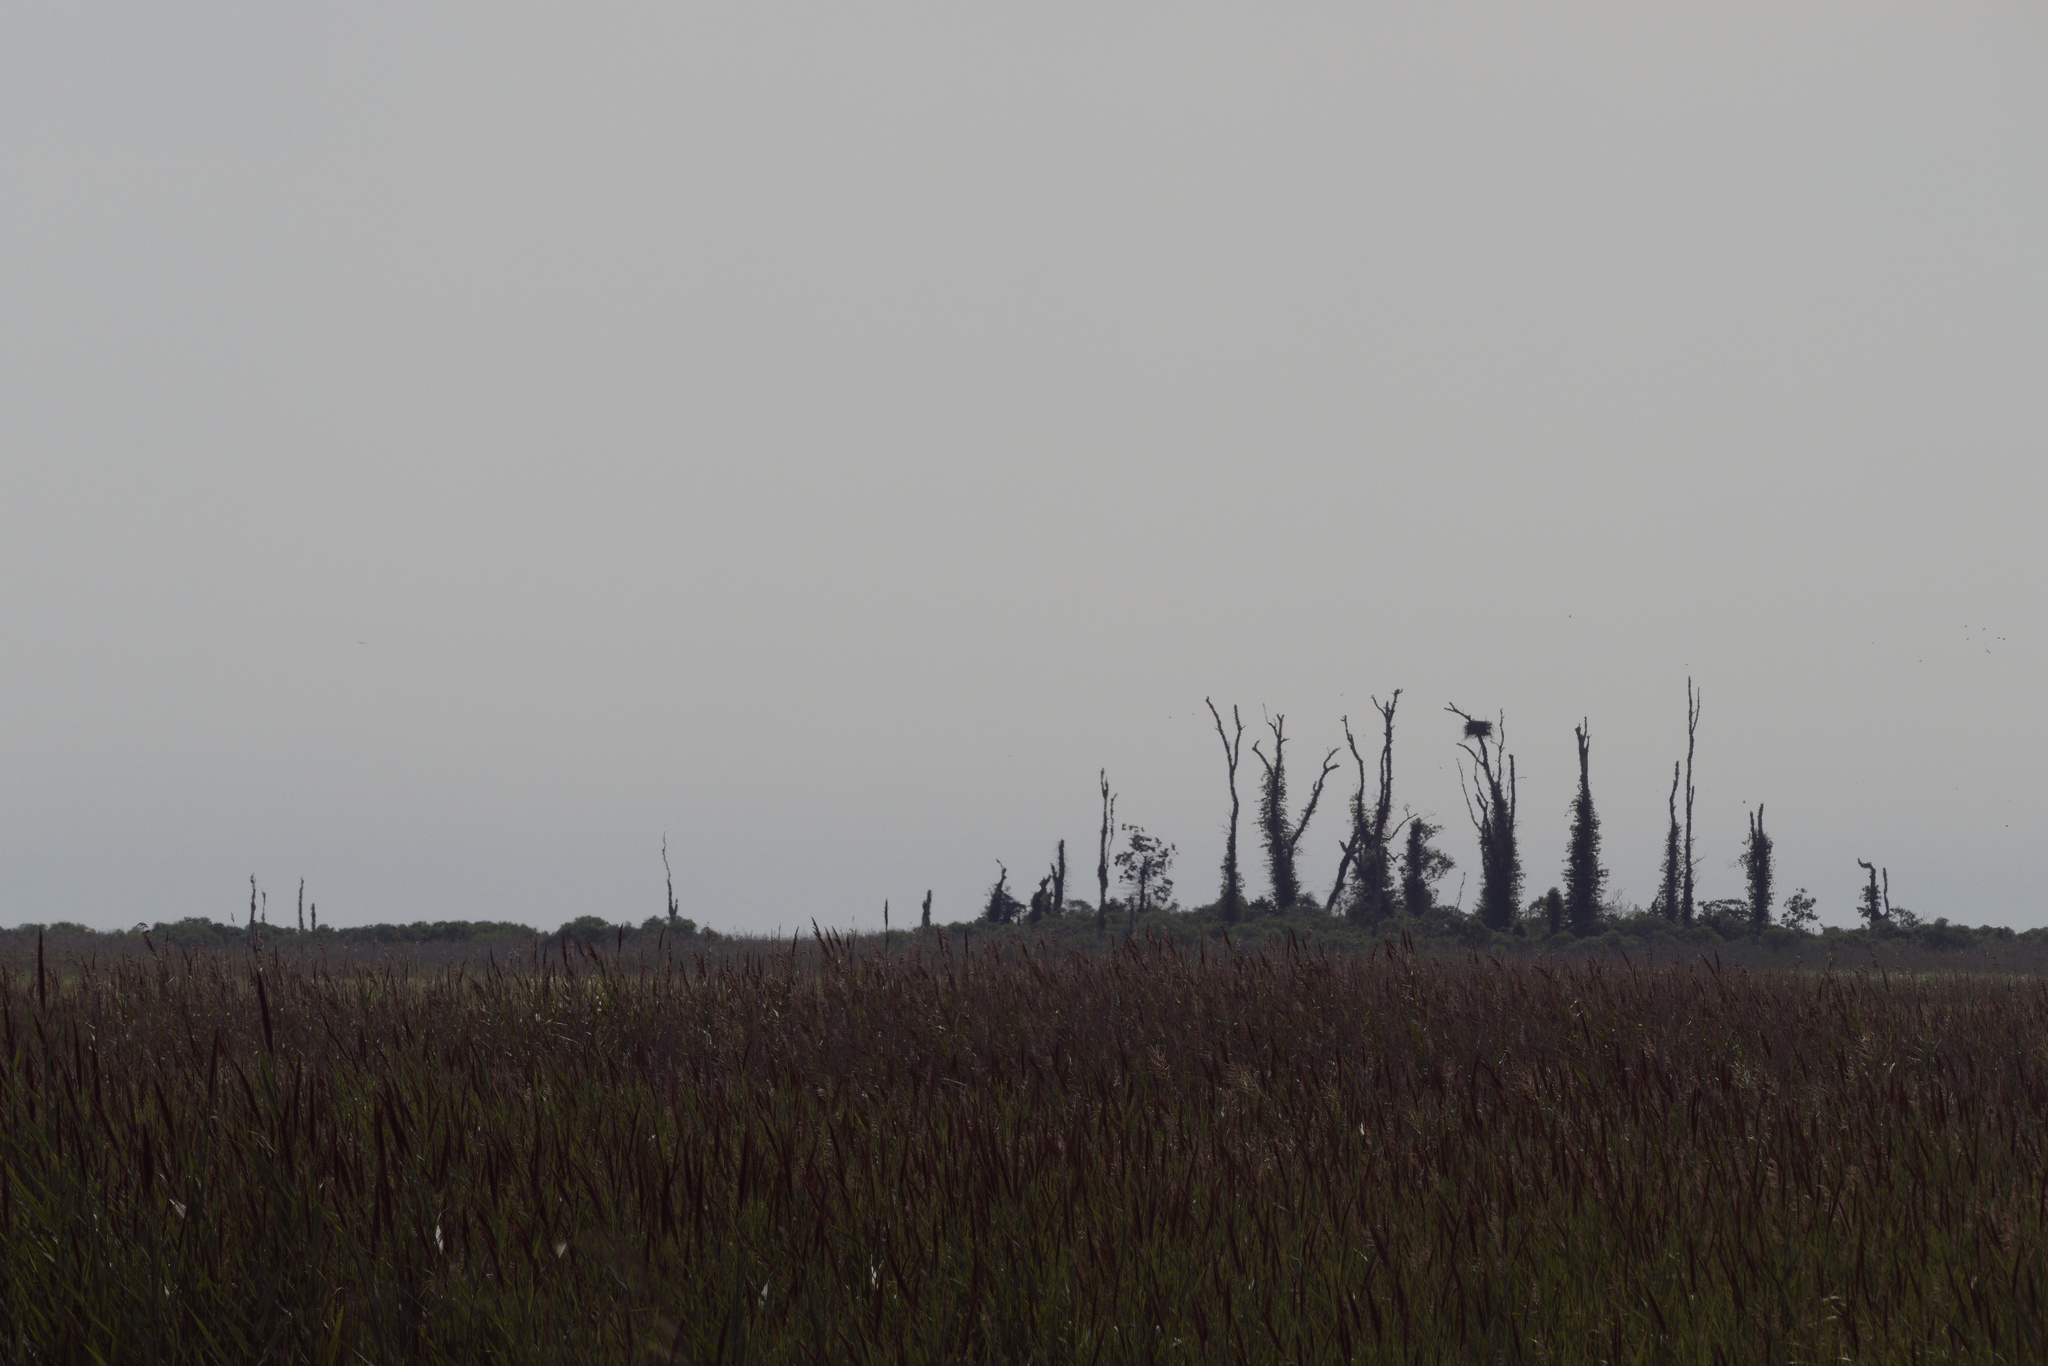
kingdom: Animalia
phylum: Chordata
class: Aves
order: Accipitriformes
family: Accipitridae
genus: Haliaeetus
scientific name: Haliaeetus leucocephalus
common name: Bald eagle
